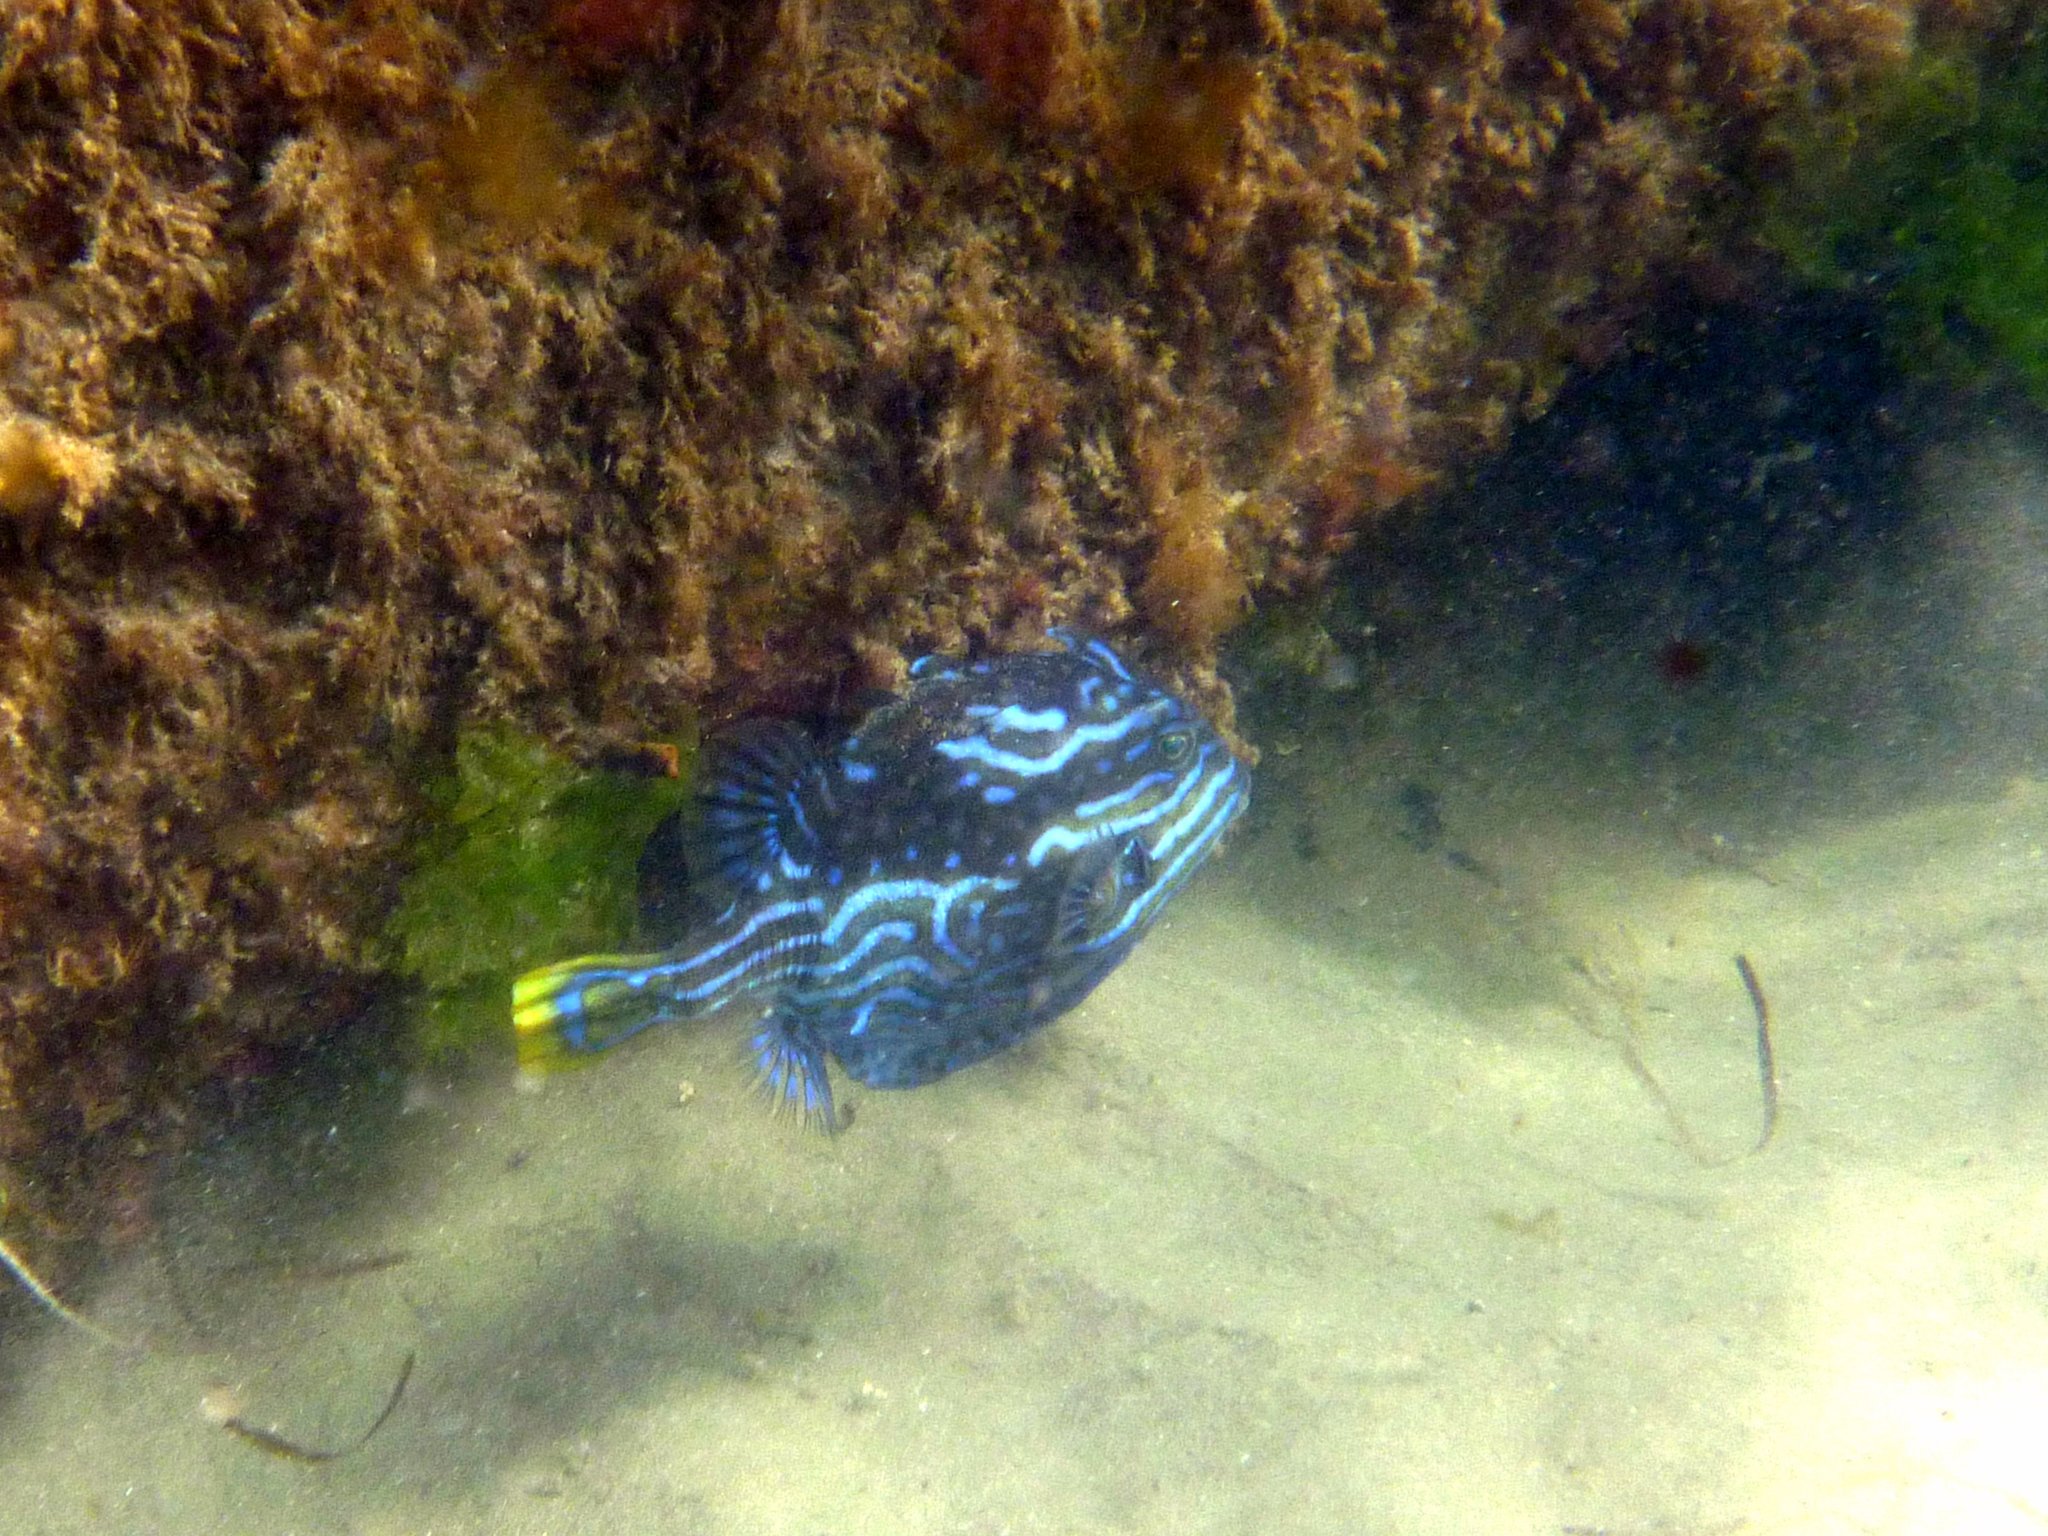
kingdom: Animalia
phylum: Chordata
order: Tetraodontiformes
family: Aracanidae
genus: Aracana
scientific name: Aracana aurita
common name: Shaw’s cowfish
